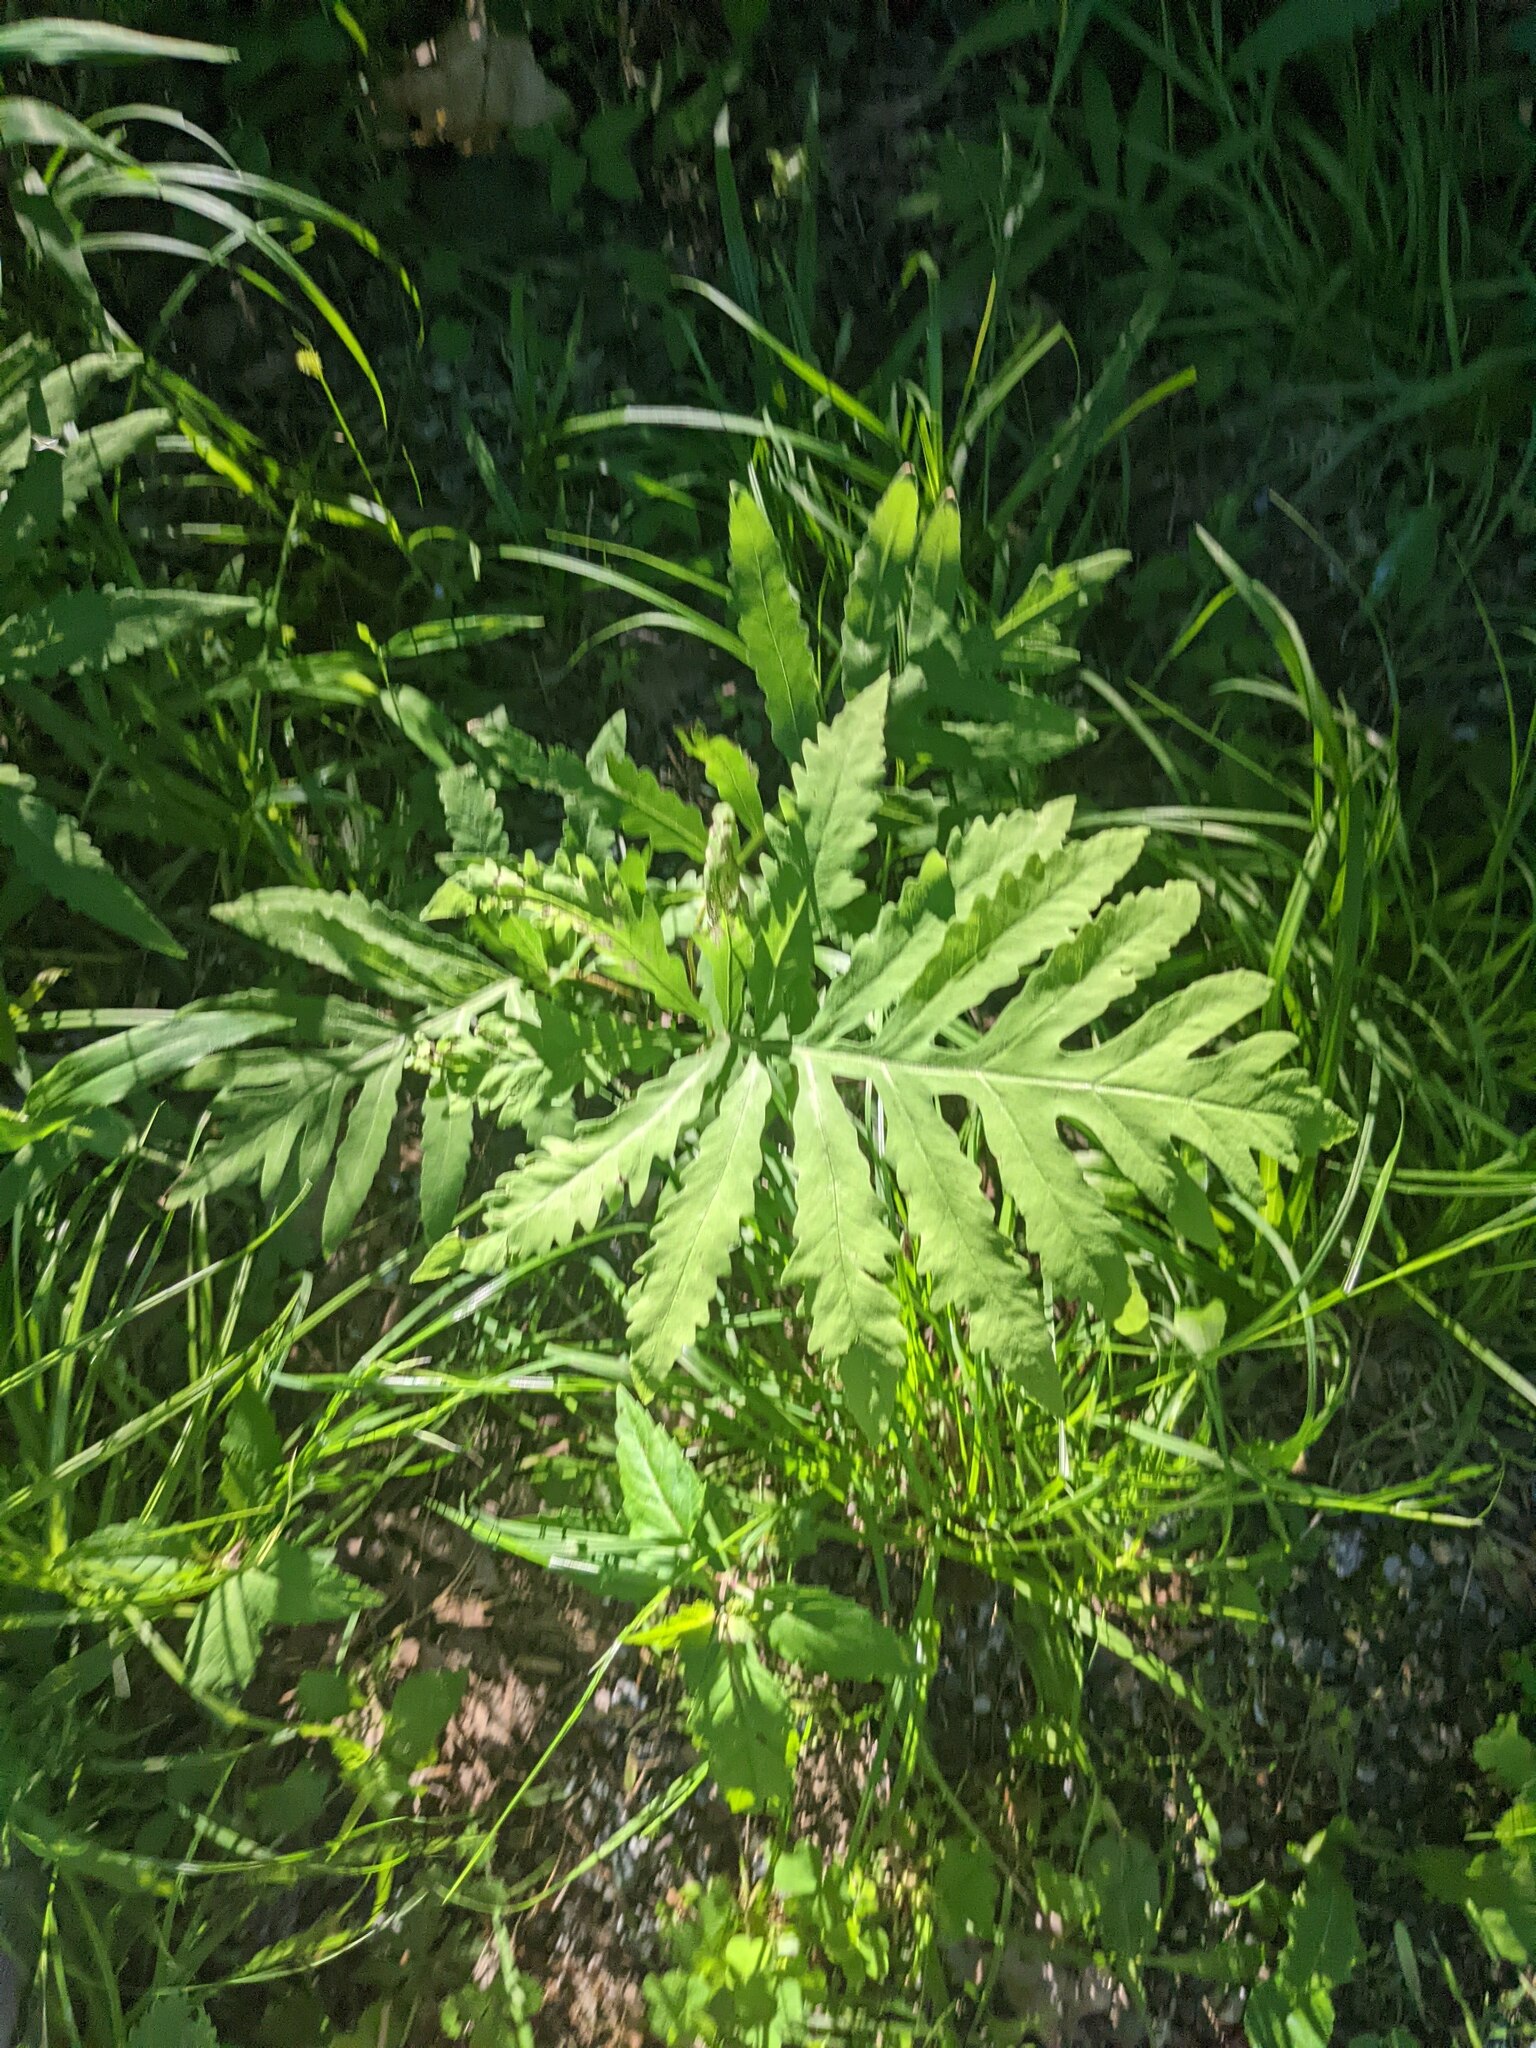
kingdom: Plantae
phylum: Tracheophyta
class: Polypodiopsida
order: Polypodiales
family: Onocleaceae
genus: Onoclea
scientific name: Onoclea sensibilis
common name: Sensitive fern
